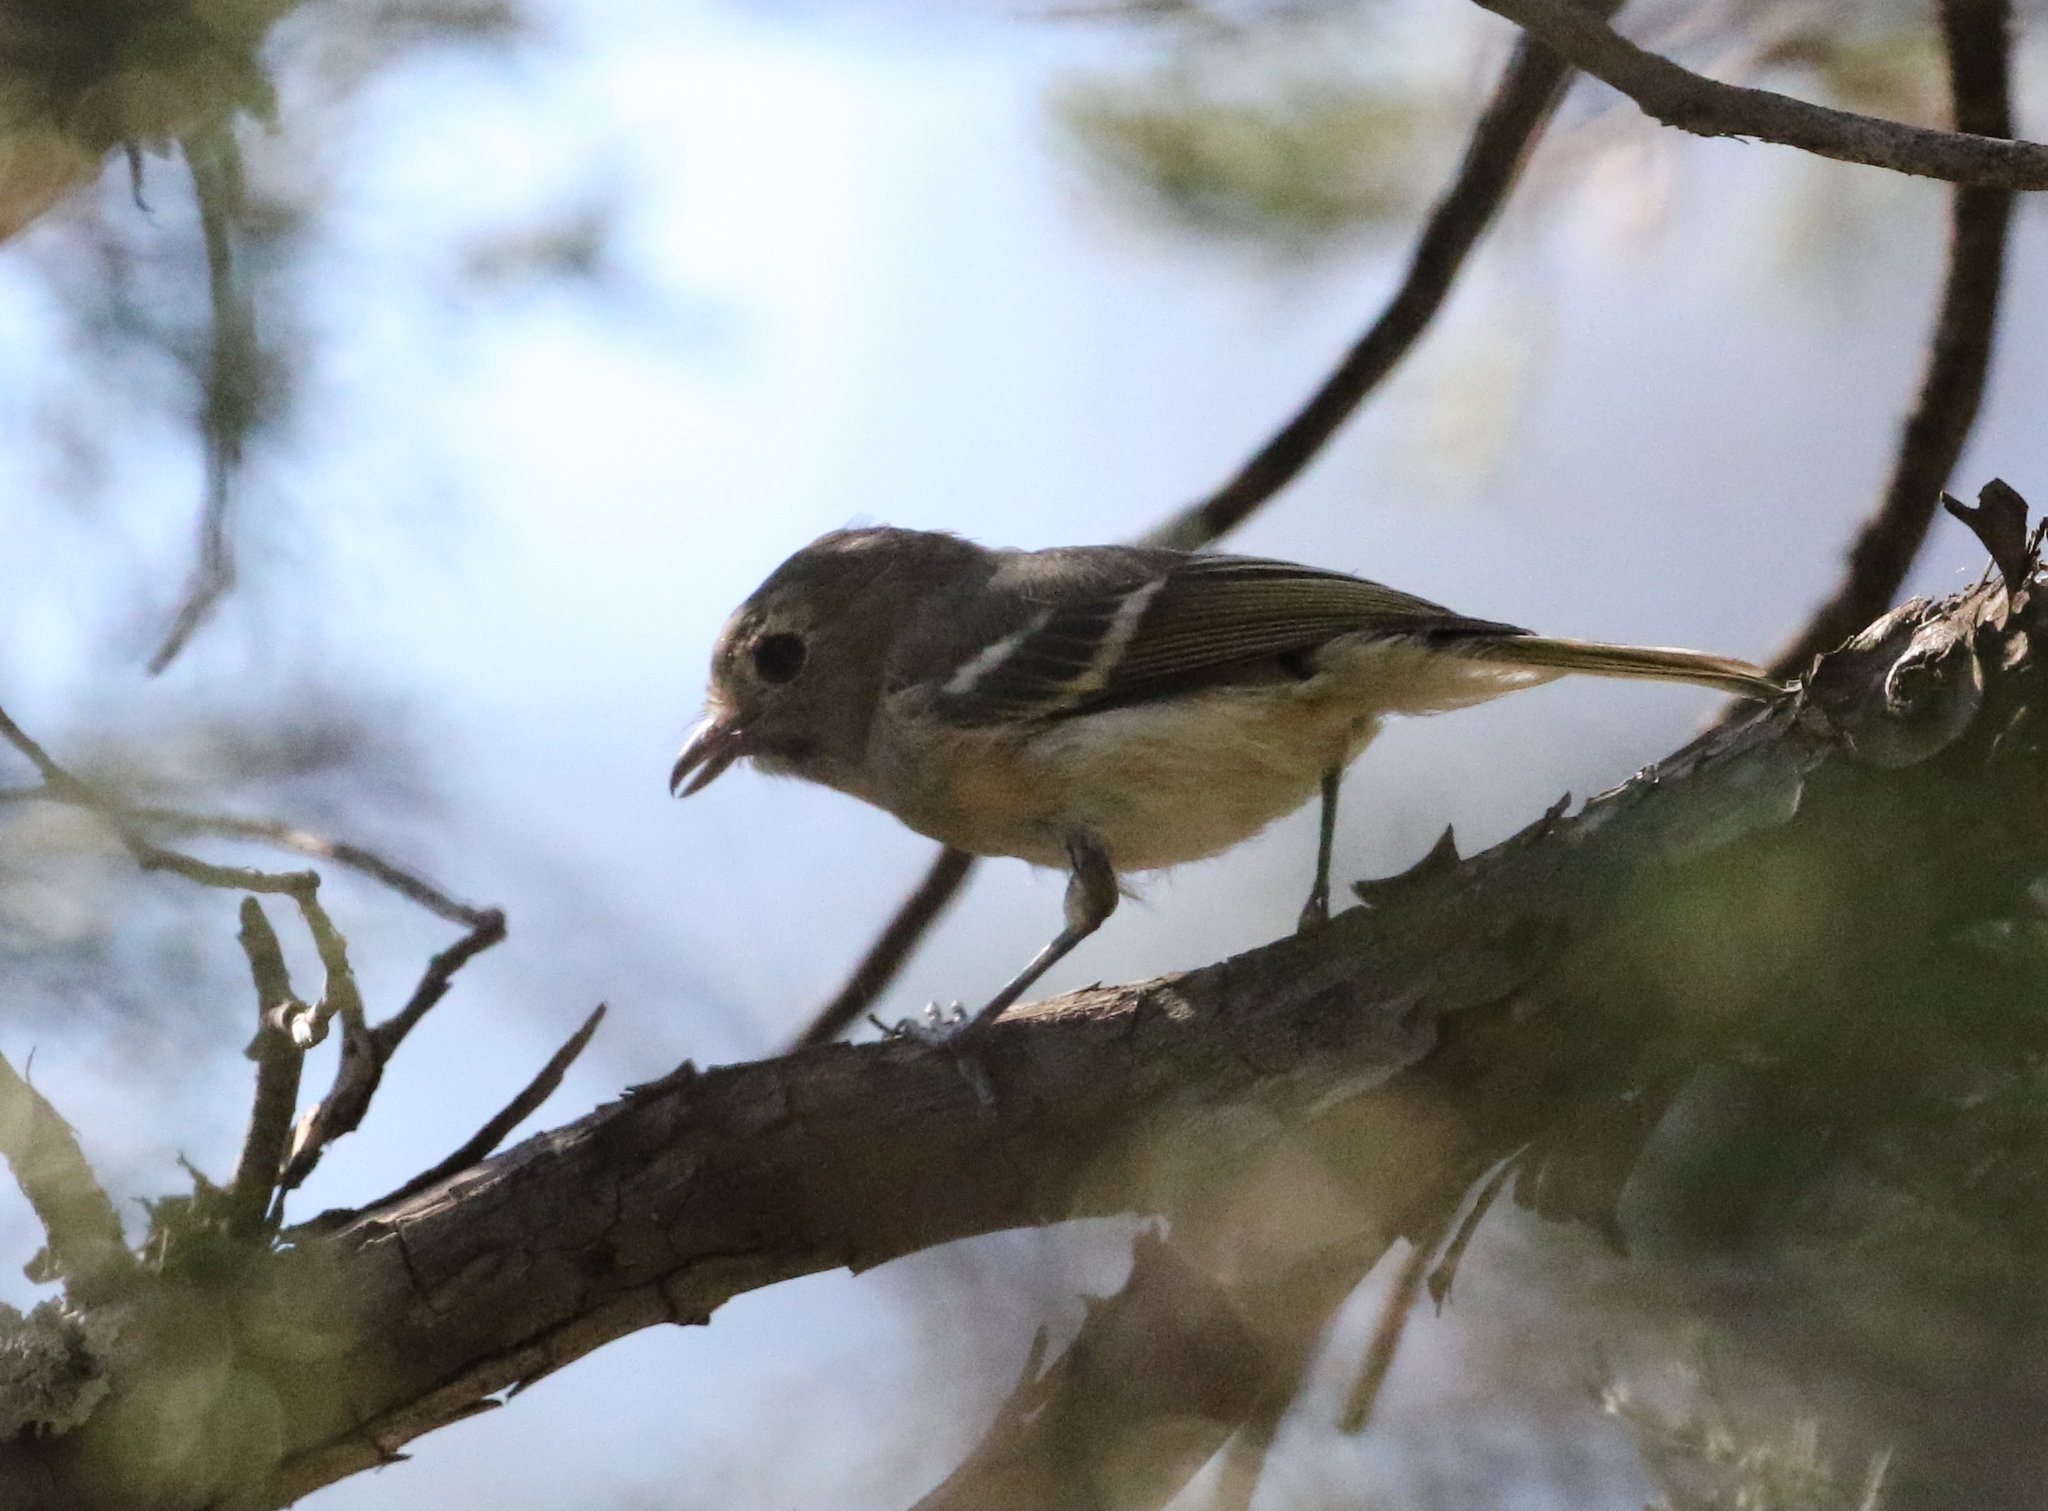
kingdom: Animalia
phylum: Chordata
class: Aves
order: Passeriformes
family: Vireonidae
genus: Vireo
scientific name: Vireo huttoni
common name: Hutton's vireo
